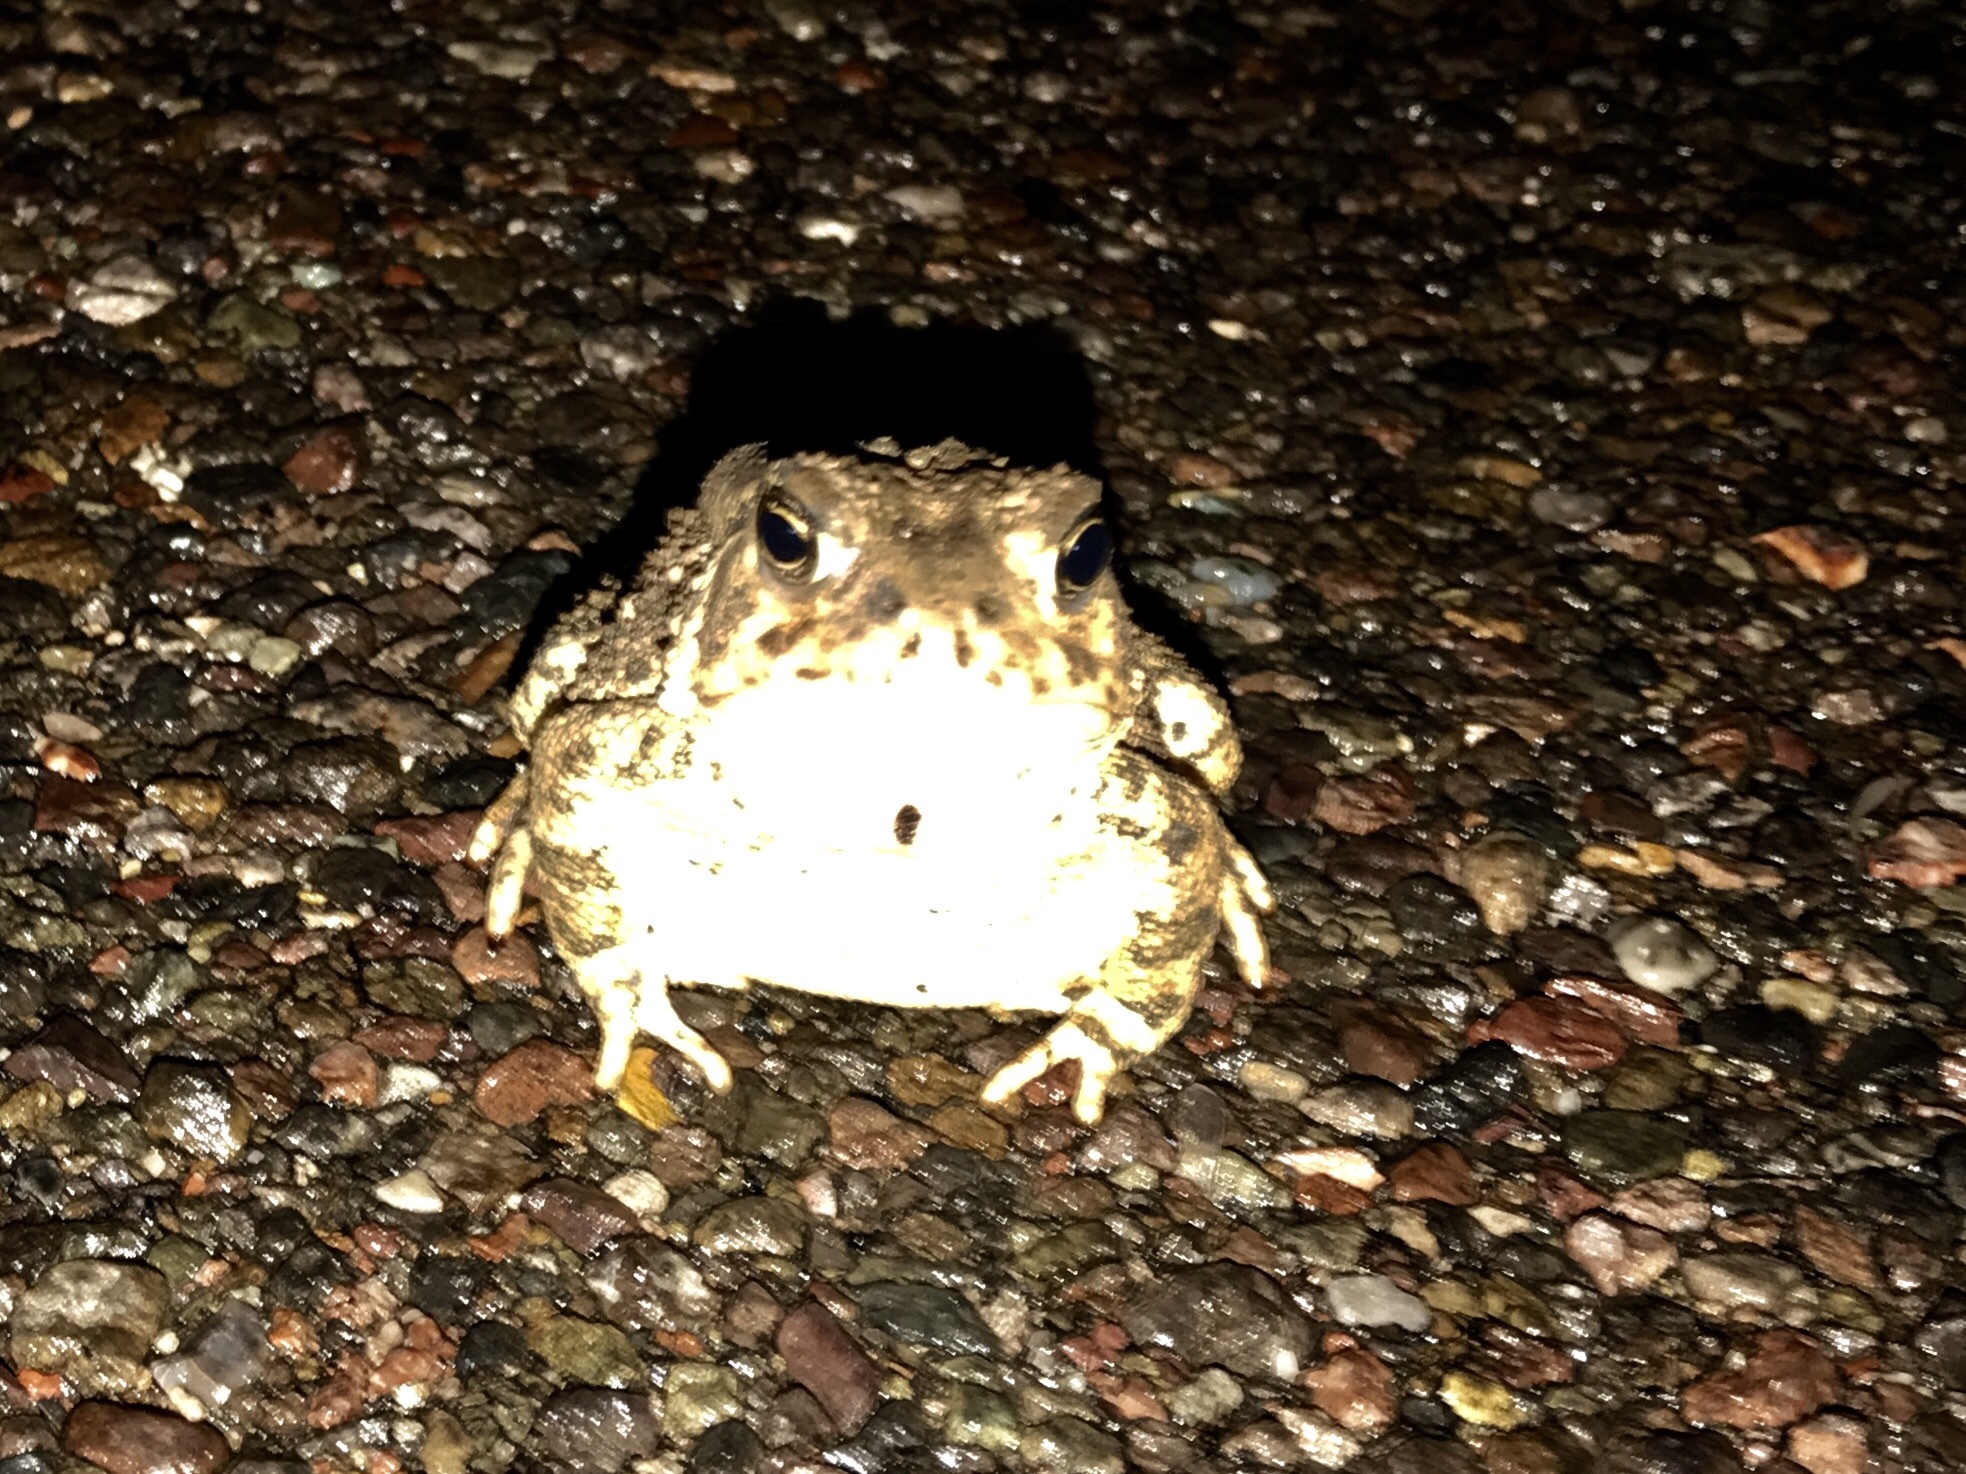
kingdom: Animalia
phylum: Chordata
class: Amphibia
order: Anura
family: Bufonidae
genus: Anaxyrus
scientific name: Anaxyrus woodhousii
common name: Woodhouse's toad
